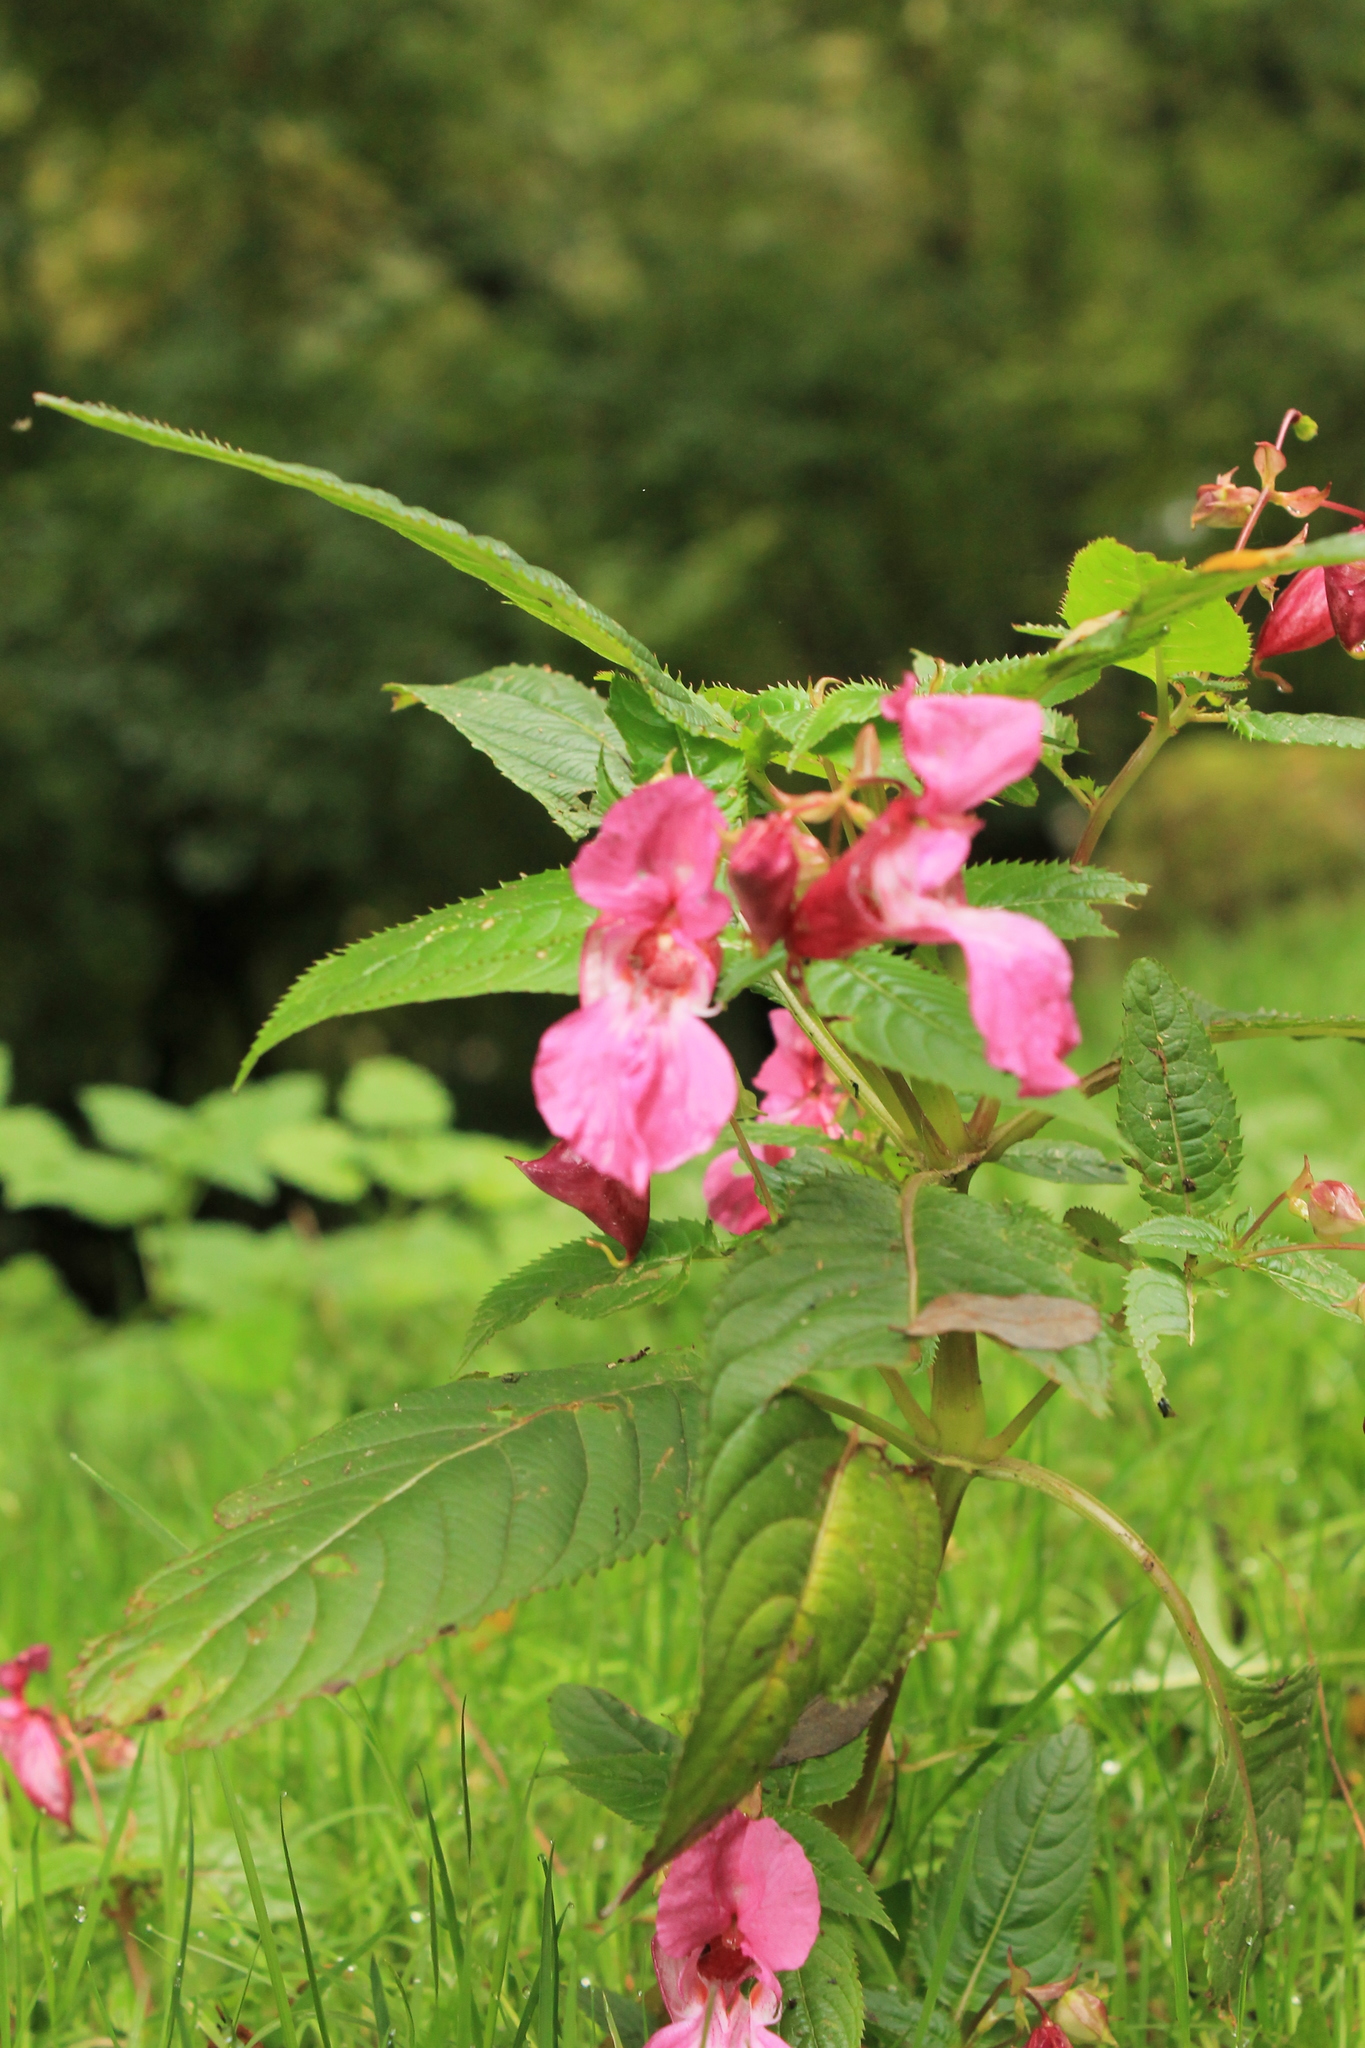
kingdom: Plantae
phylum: Tracheophyta
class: Magnoliopsida
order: Ericales
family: Balsaminaceae
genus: Impatiens
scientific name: Impatiens glandulifera
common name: Himalayan balsam
